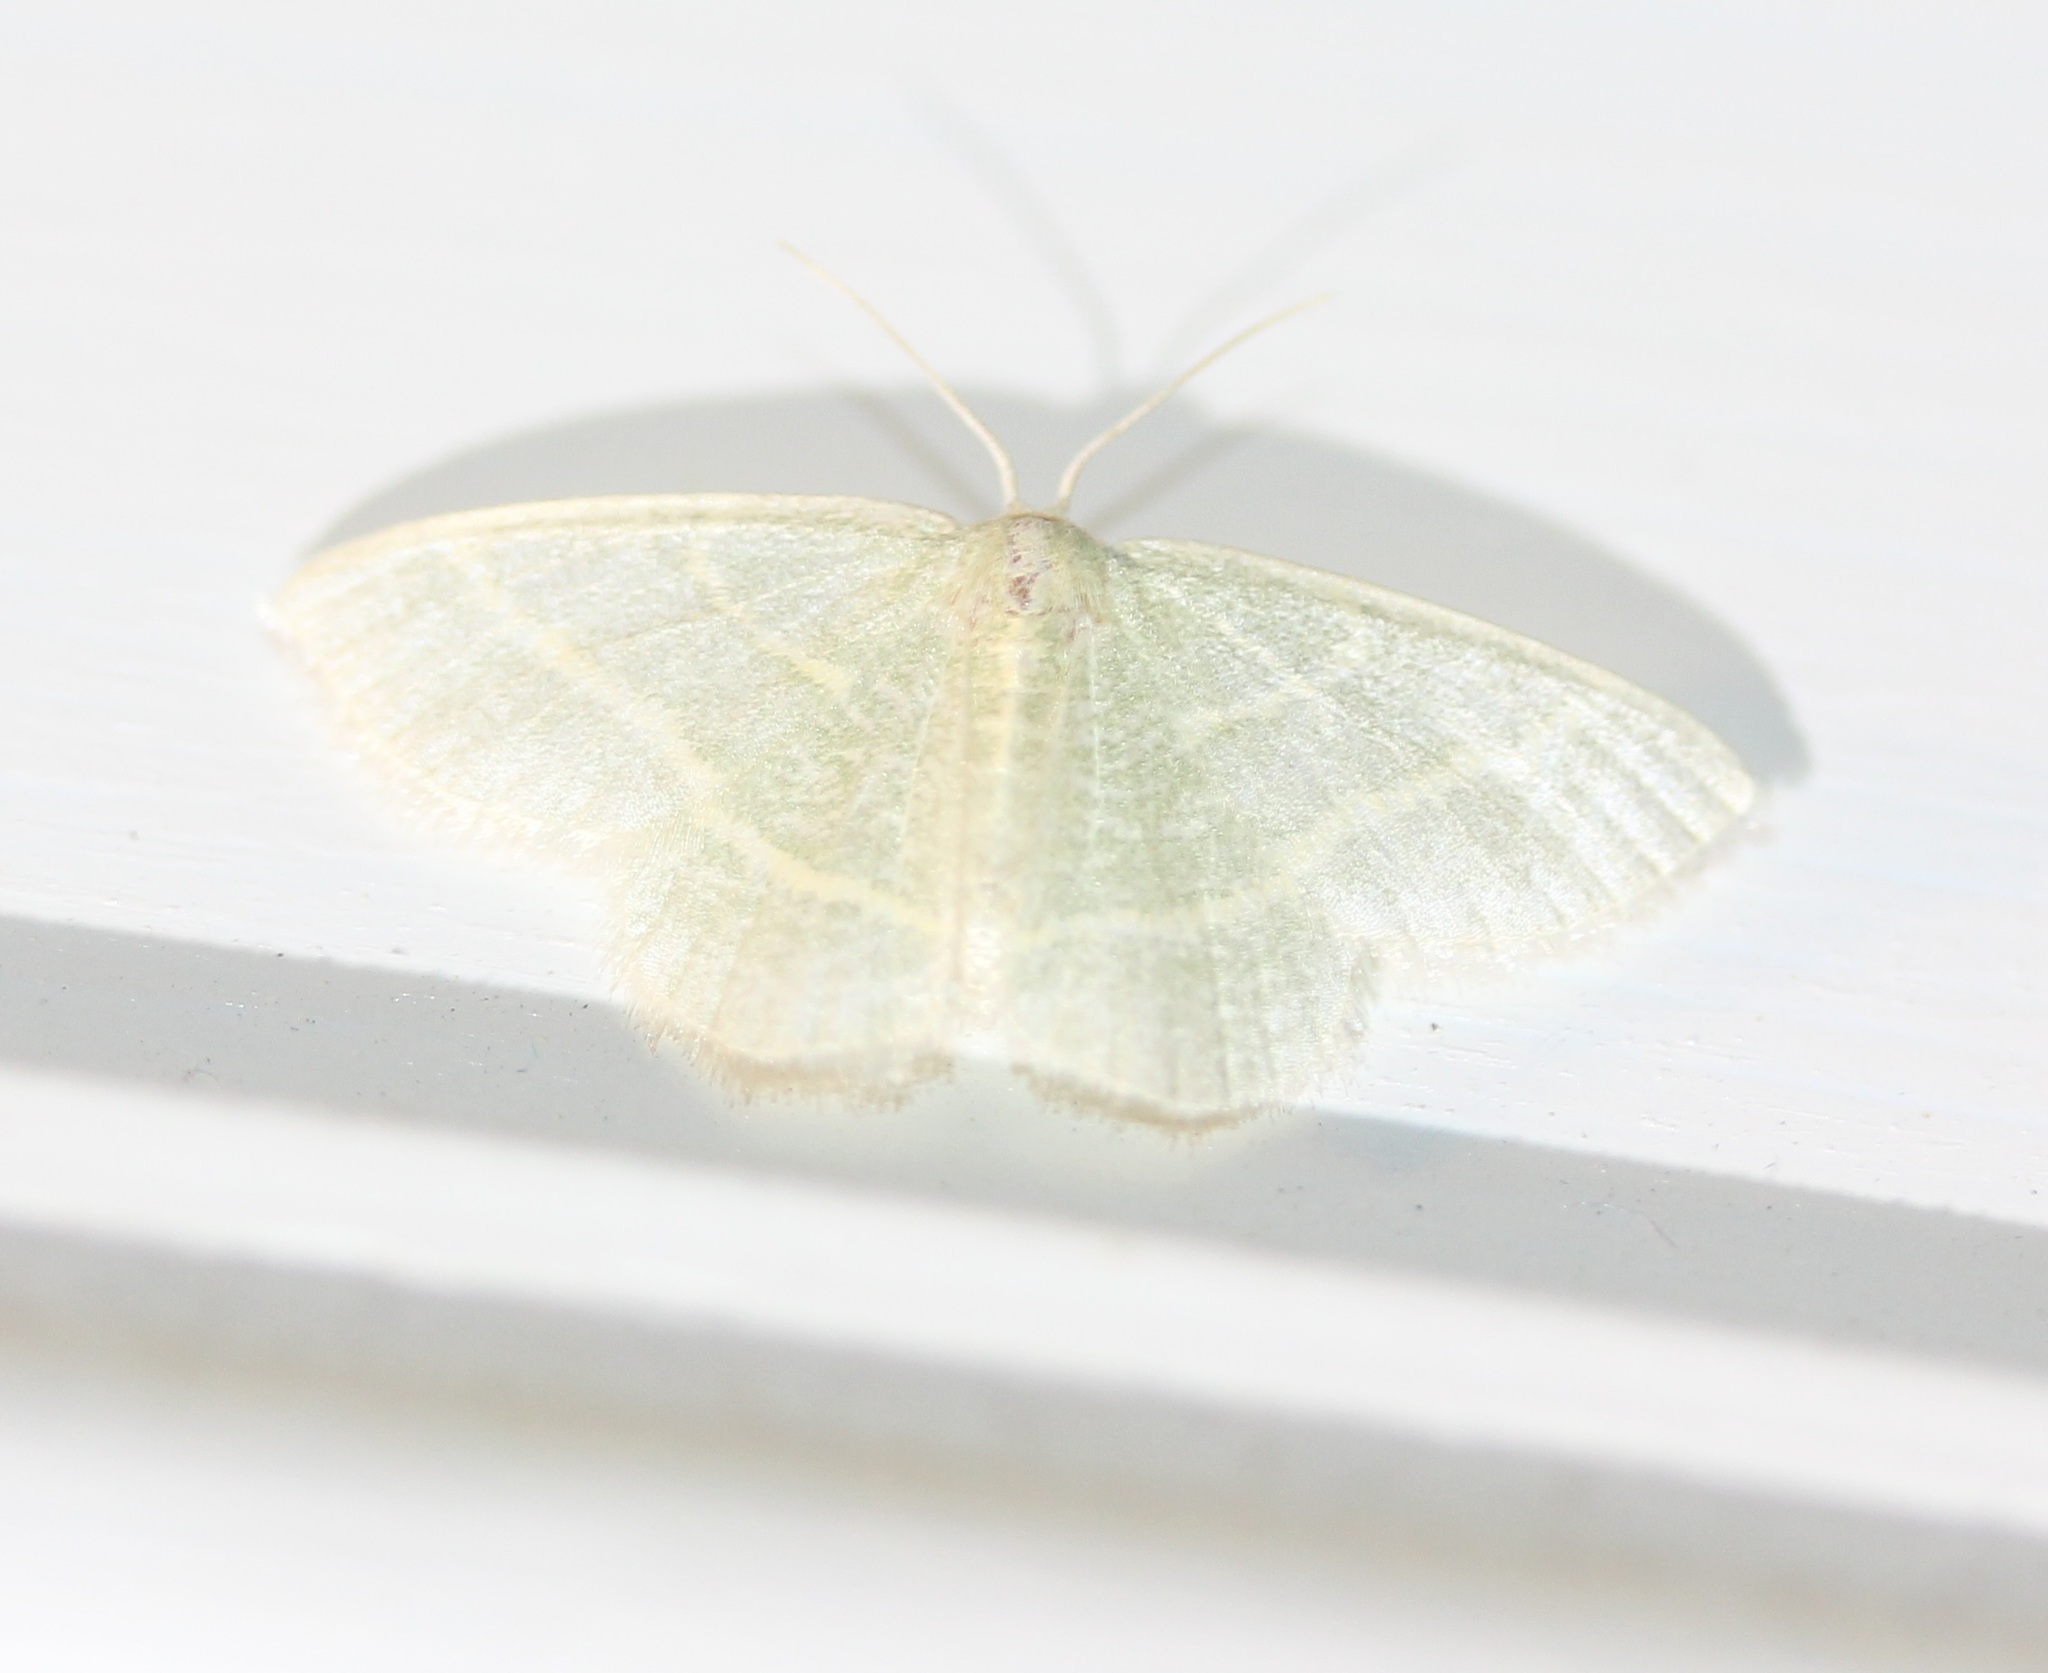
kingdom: Animalia
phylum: Arthropoda
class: Insecta
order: Lepidoptera
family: Geometridae
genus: Chlorochlamys
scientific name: Chlorochlamys chloroleucaria
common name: Blackberry looper
